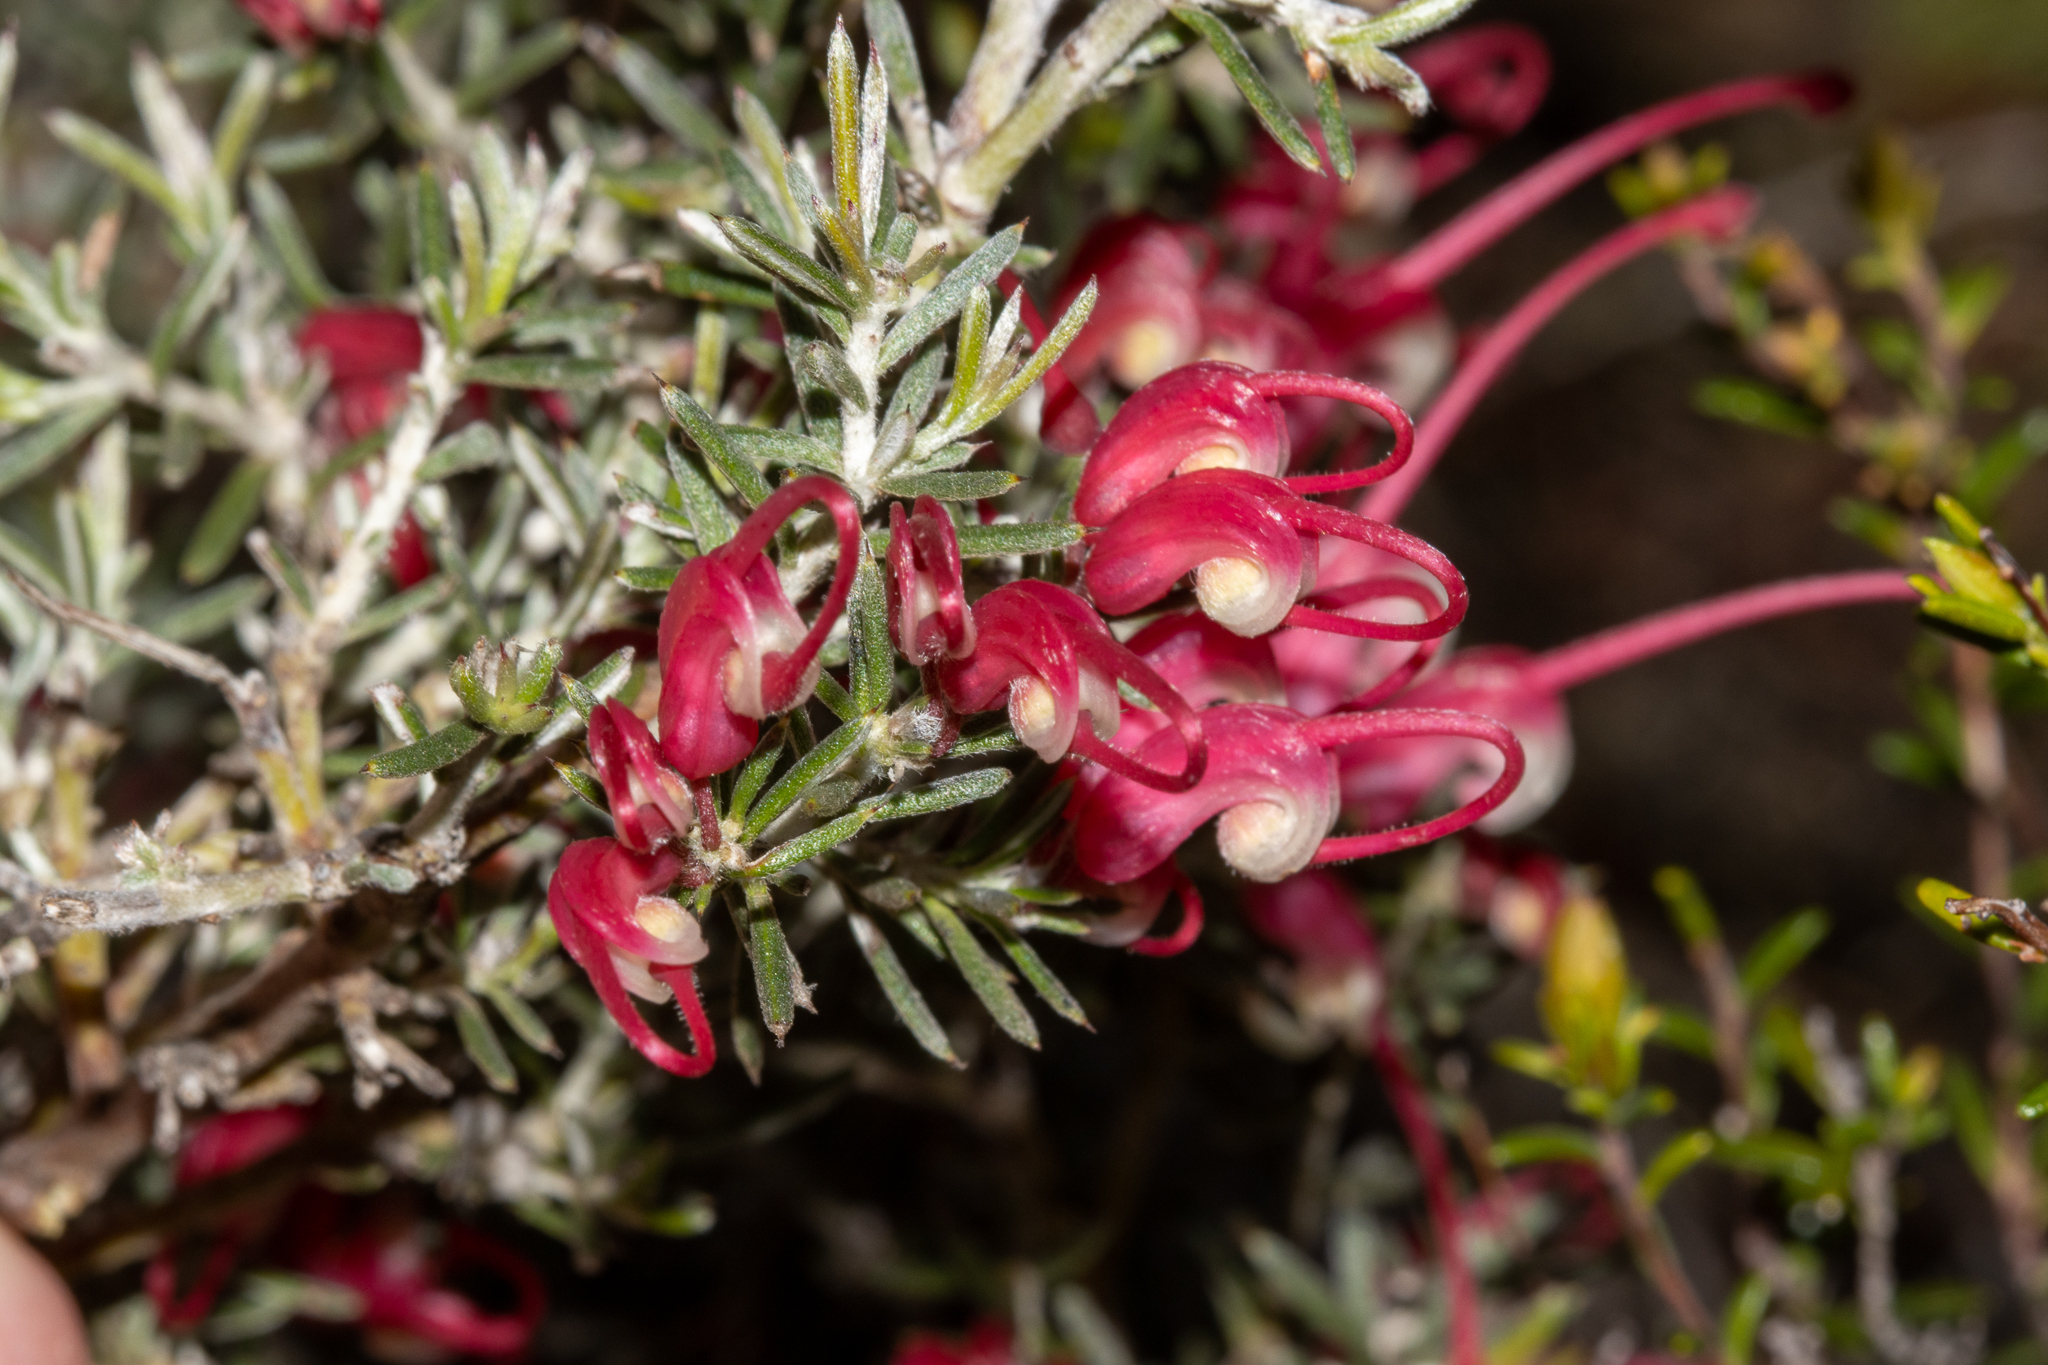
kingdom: Plantae
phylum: Tracheophyta
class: Magnoliopsida
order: Proteales
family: Proteaceae
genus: Grevillea
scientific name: Grevillea lavandulacea
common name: Lavender grevillea
